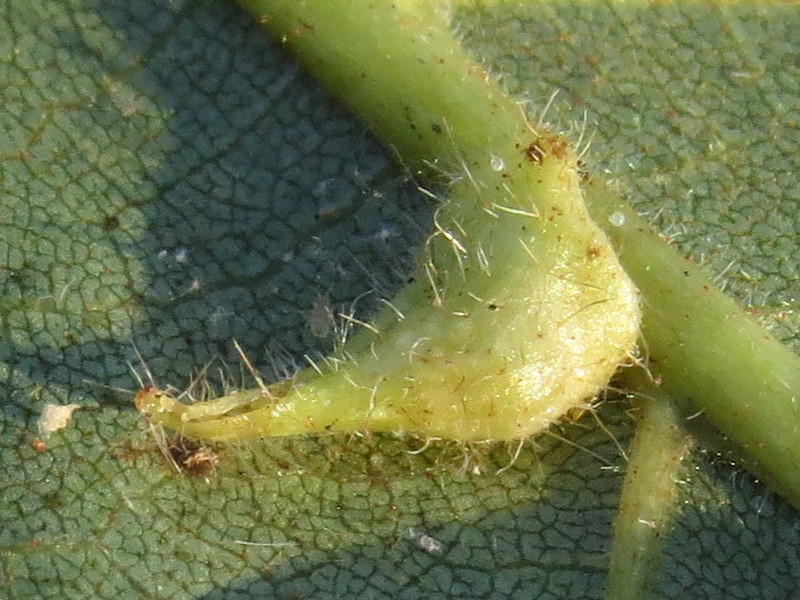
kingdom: Animalia
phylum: Arthropoda
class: Insecta
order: Diptera
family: Cecidomyiidae
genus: Caryomyia
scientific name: Caryomyia inclinata
